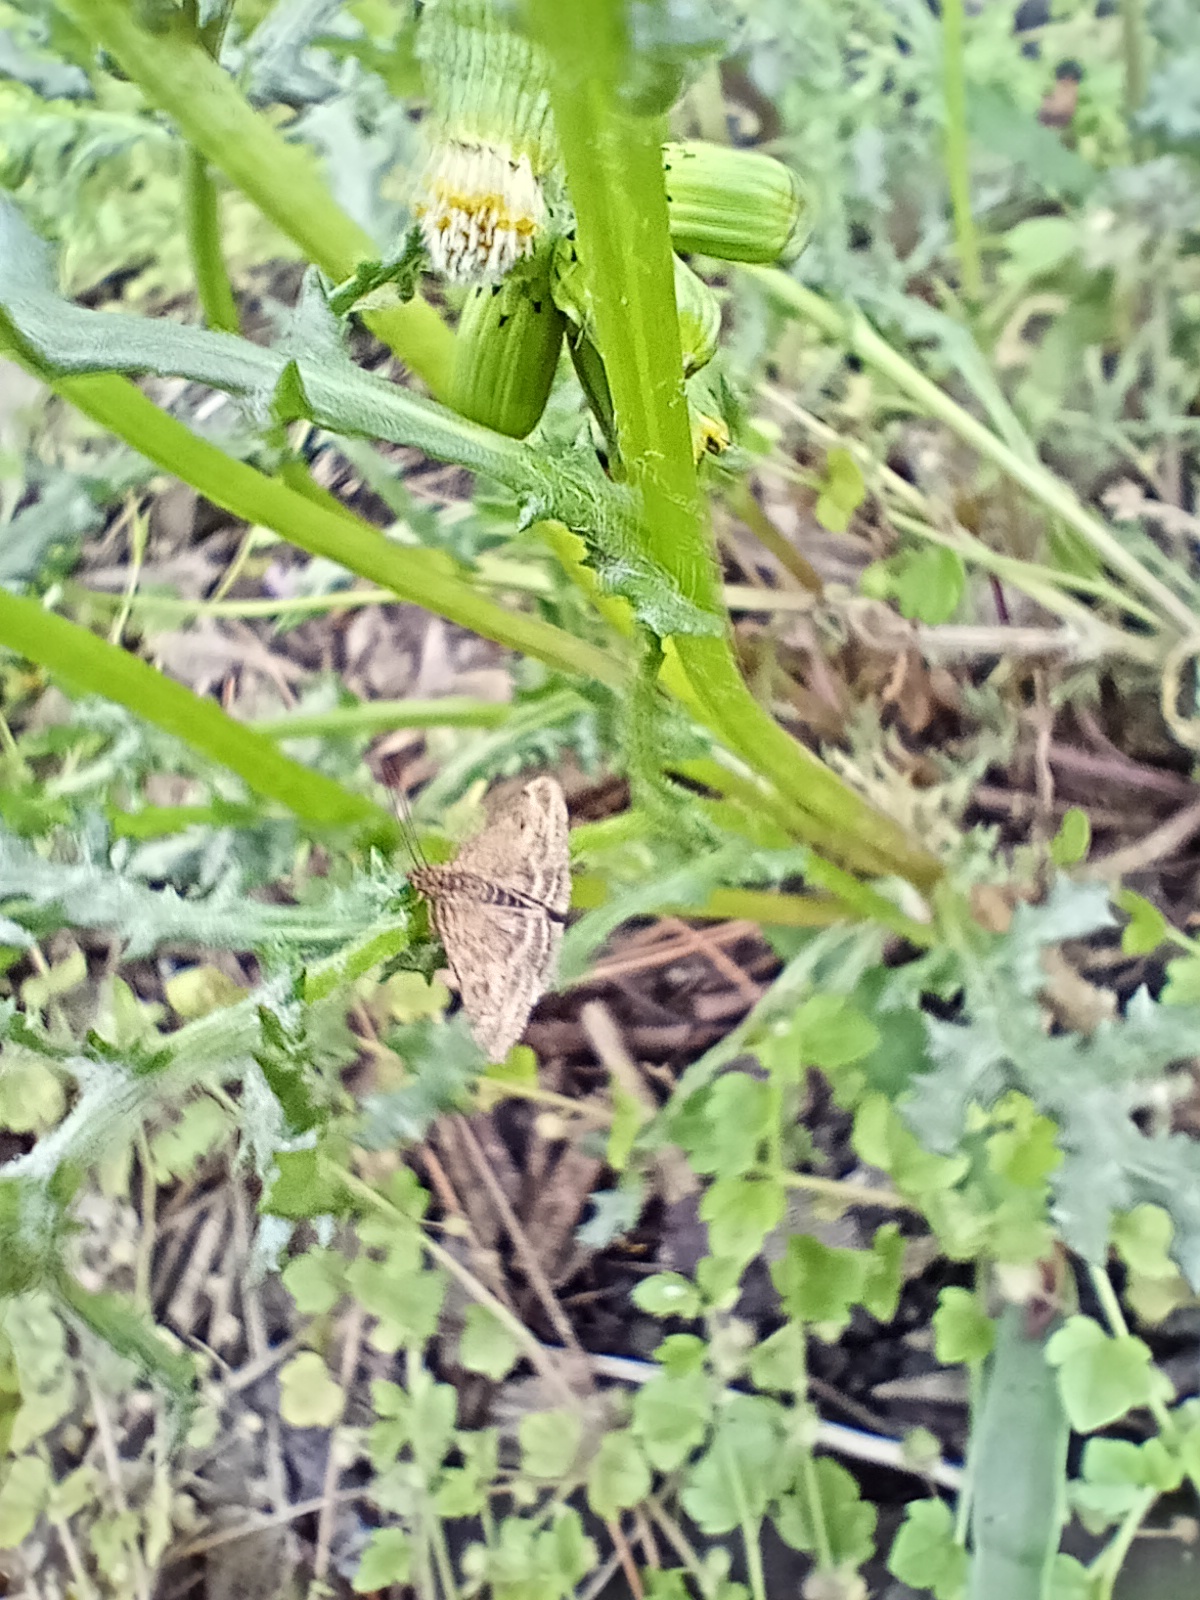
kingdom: Animalia
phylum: Arthropoda
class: Insecta
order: Lepidoptera
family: Crambidae
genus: Pyrausta
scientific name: Pyrausta despicata
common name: Straw-barred pearl
